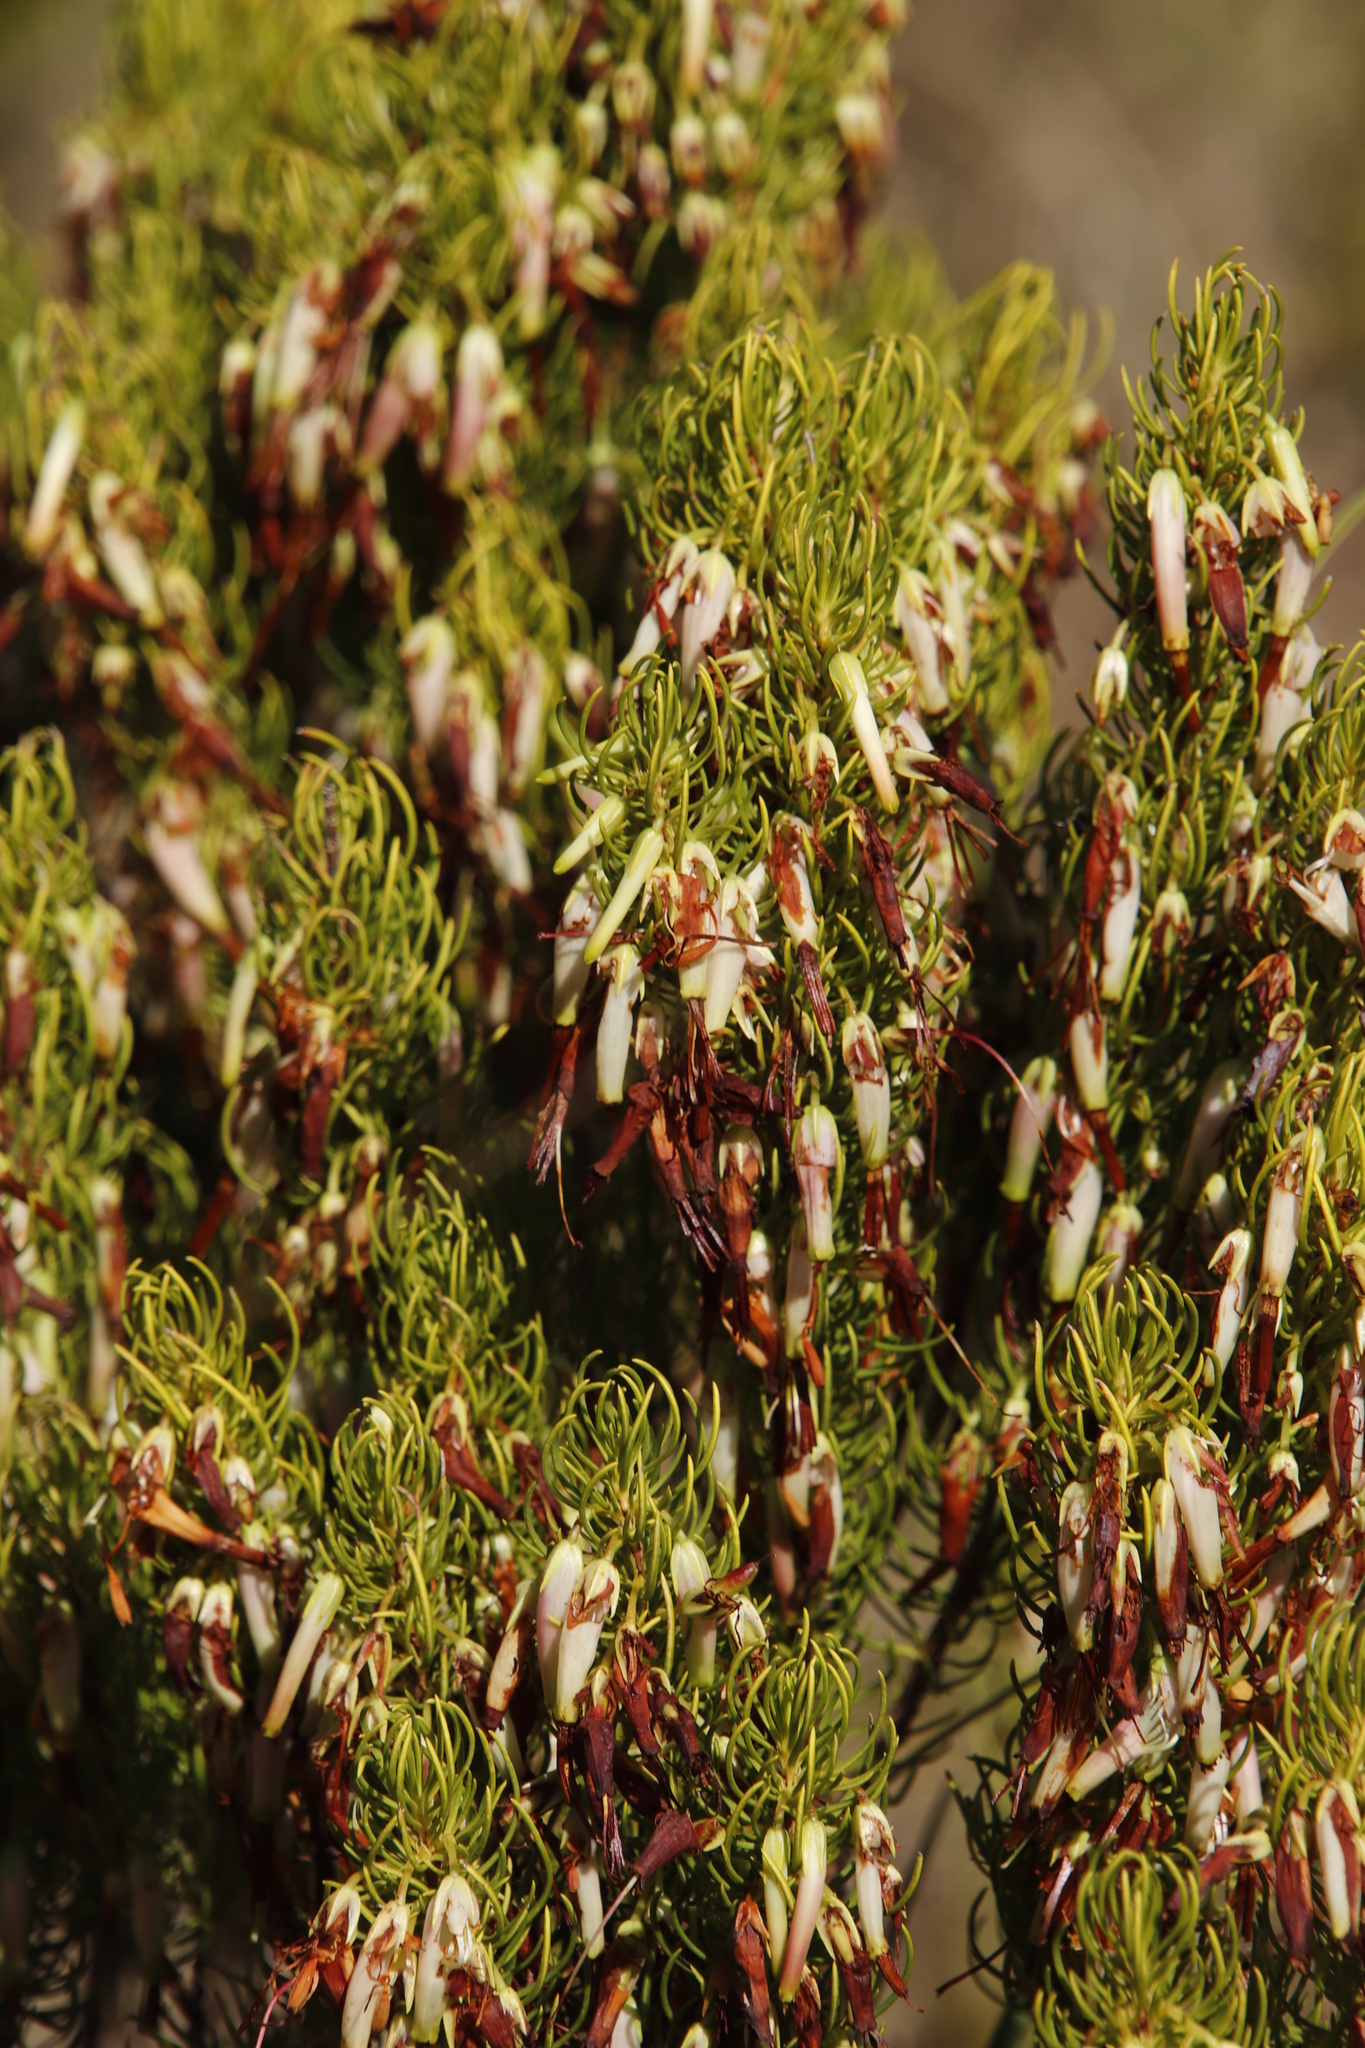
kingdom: Plantae
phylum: Tracheophyta
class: Magnoliopsida
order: Ericales
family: Ericaceae
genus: Erica
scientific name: Erica plukenetii
